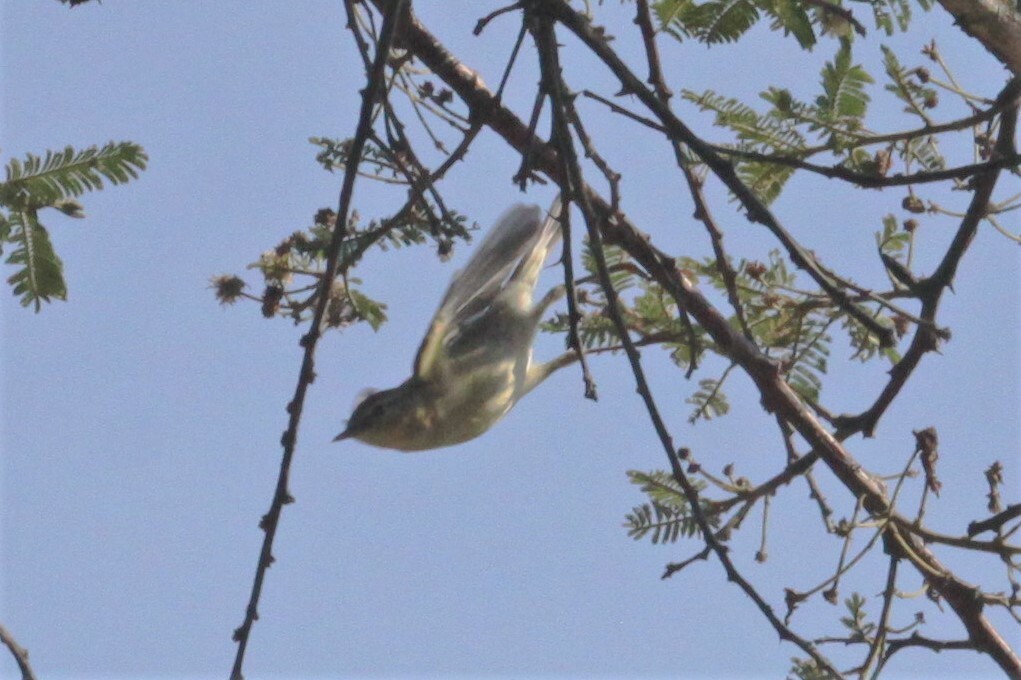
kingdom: Animalia
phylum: Chordata
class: Aves
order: Passeriformes
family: Phylloscopidae
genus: Phylloscopus
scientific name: Phylloscopus trochilus
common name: Willow warbler
